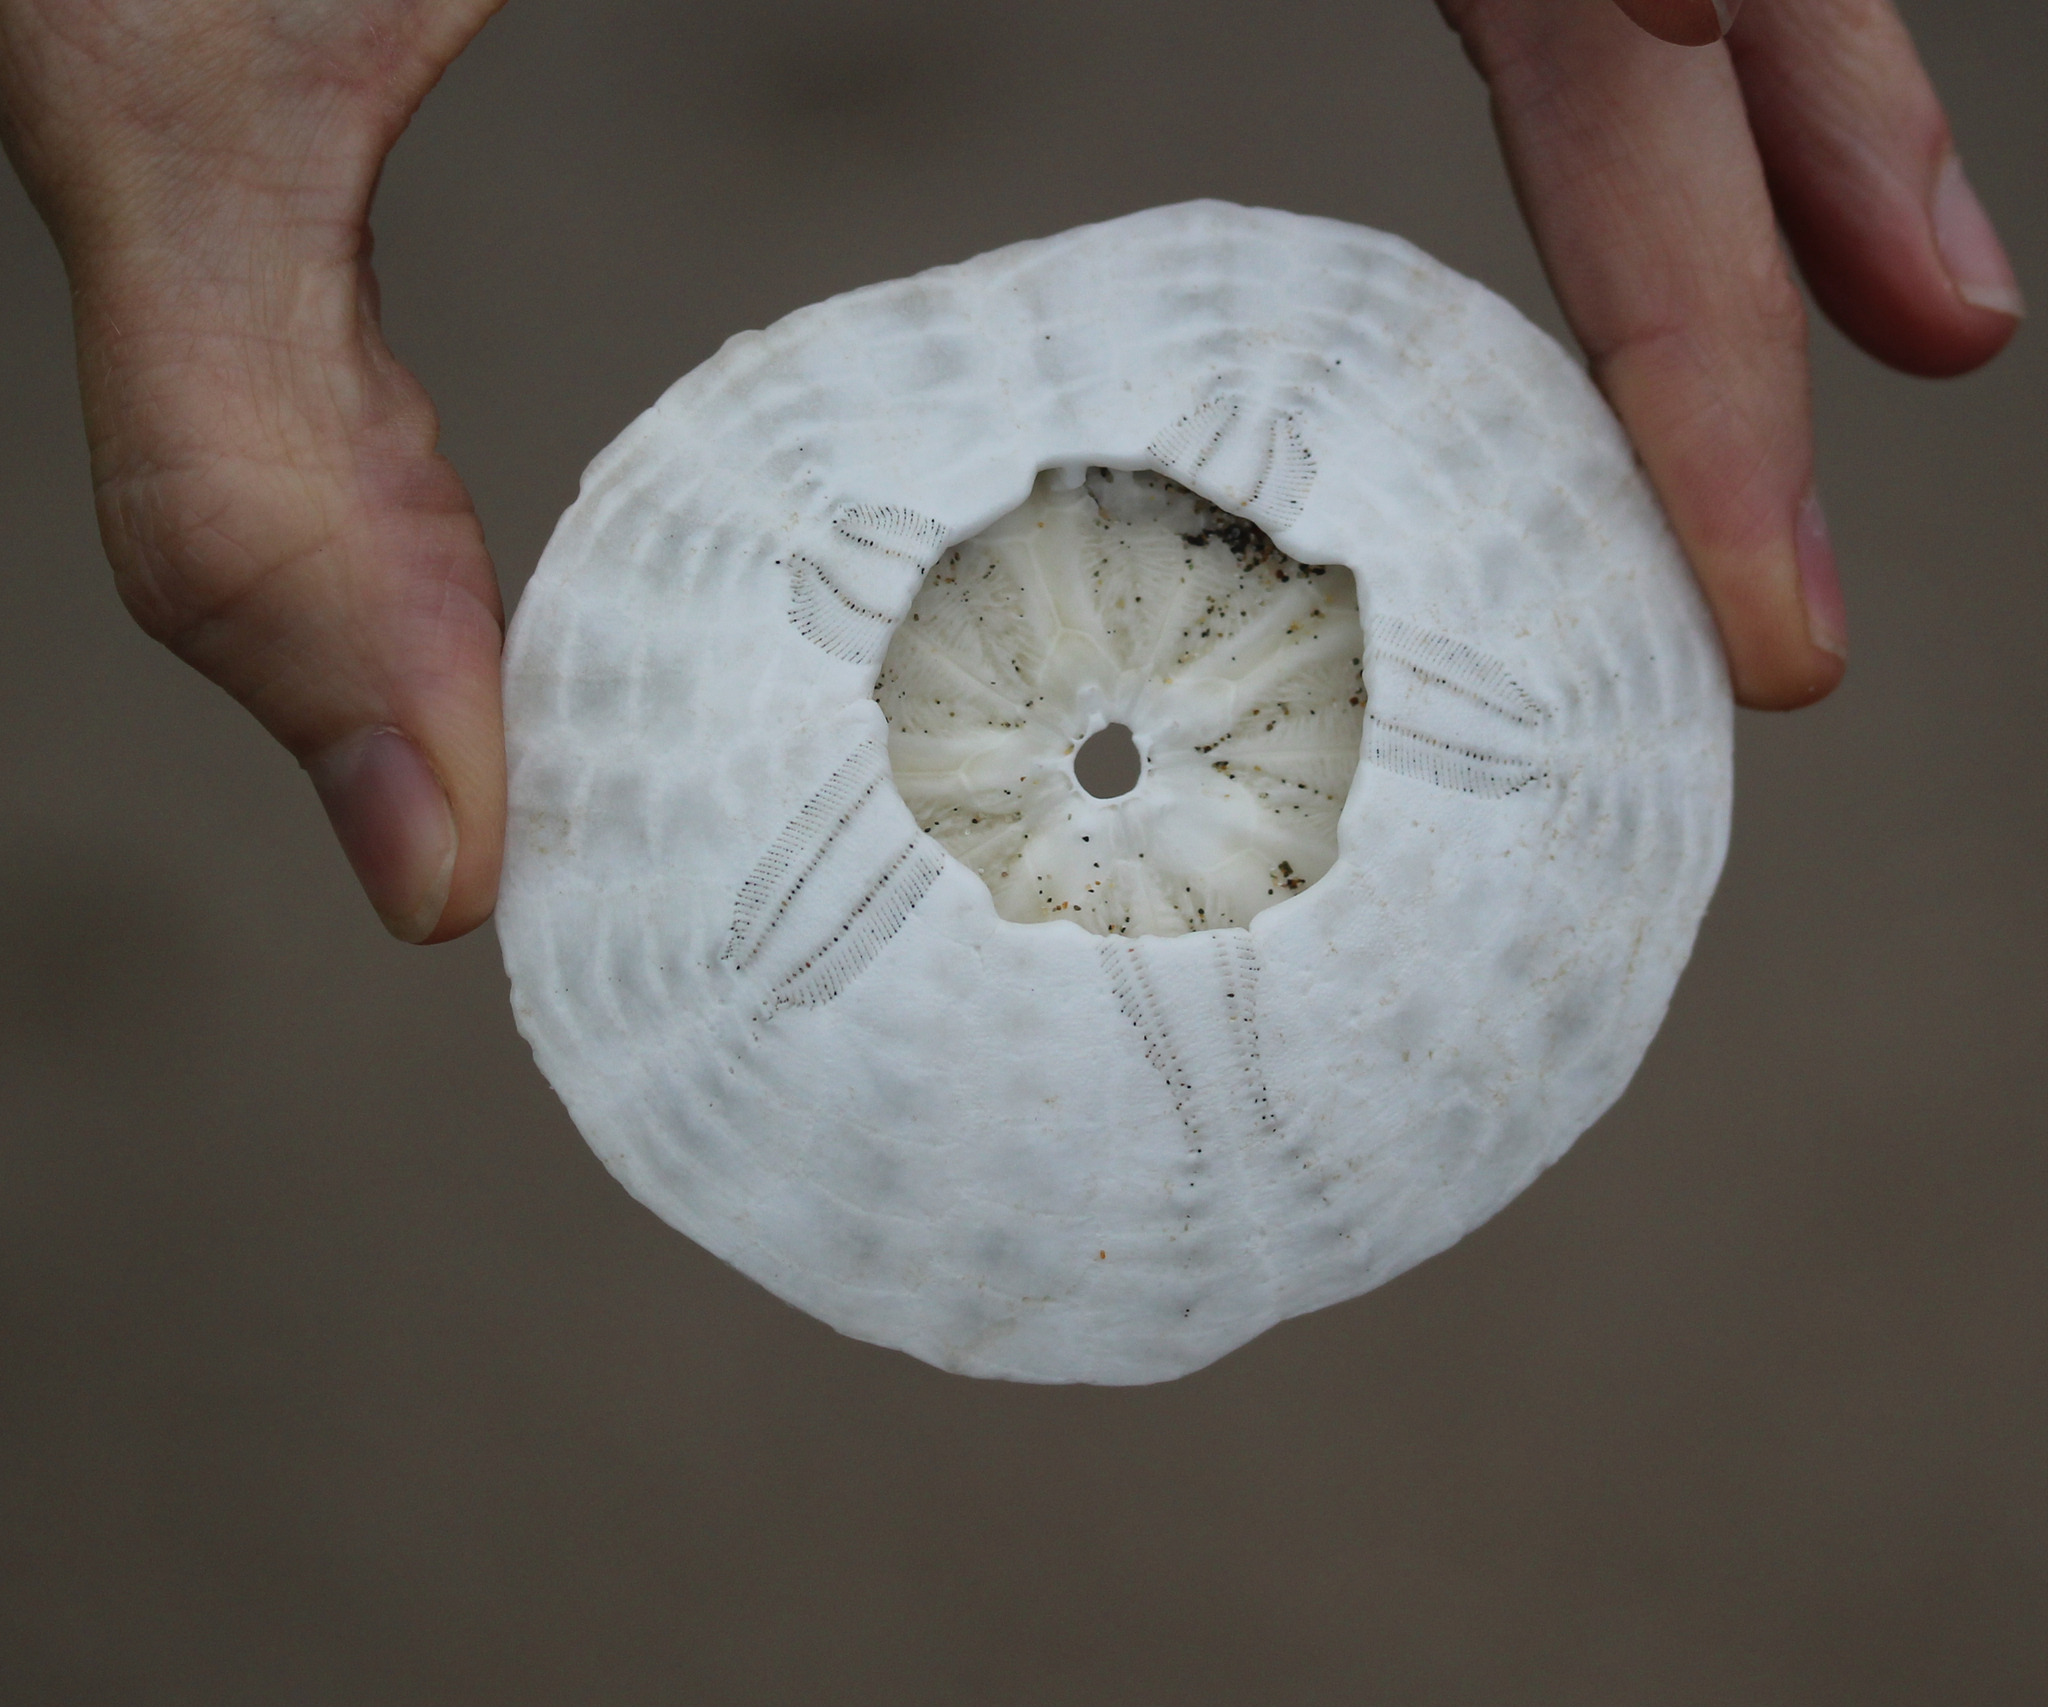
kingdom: Animalia
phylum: Echinodermata
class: Echinoidea
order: Echinolampadacea
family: Dendrasteridae
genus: Dendraster
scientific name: Dendraster excentricus
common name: Eccentric sand dollar sea urchin
